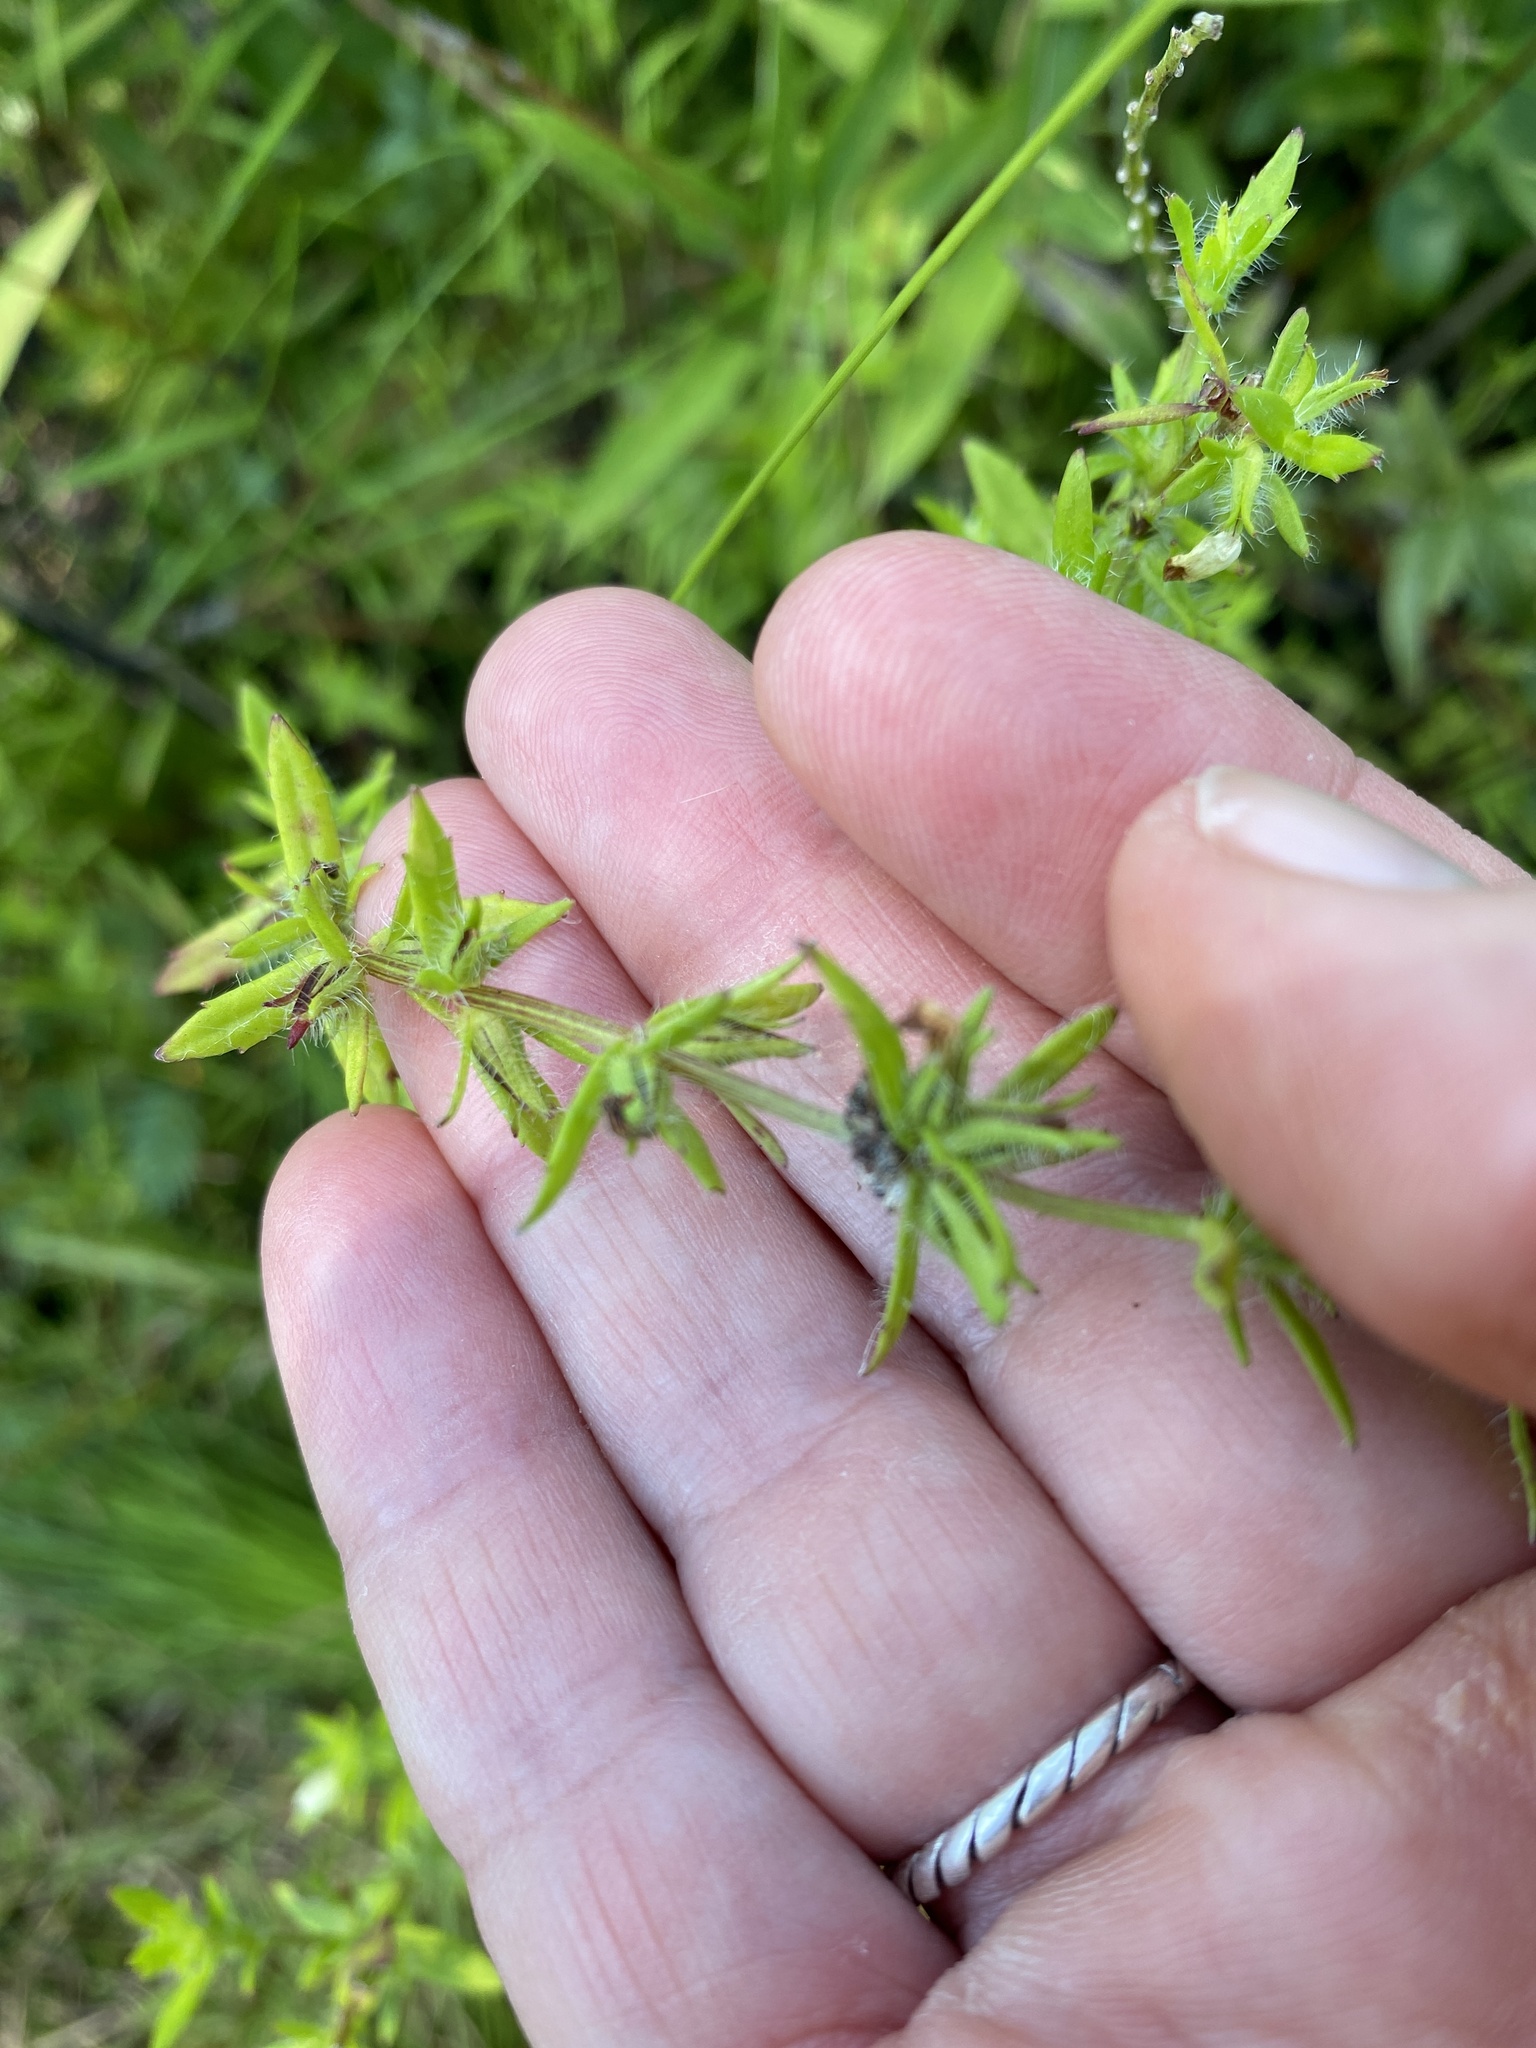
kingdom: Plantae
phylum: Tracheophyta
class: Magnoliopsida
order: Lamiales
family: Plantaginaceae
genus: Gratiola
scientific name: Gratiola pilosa
